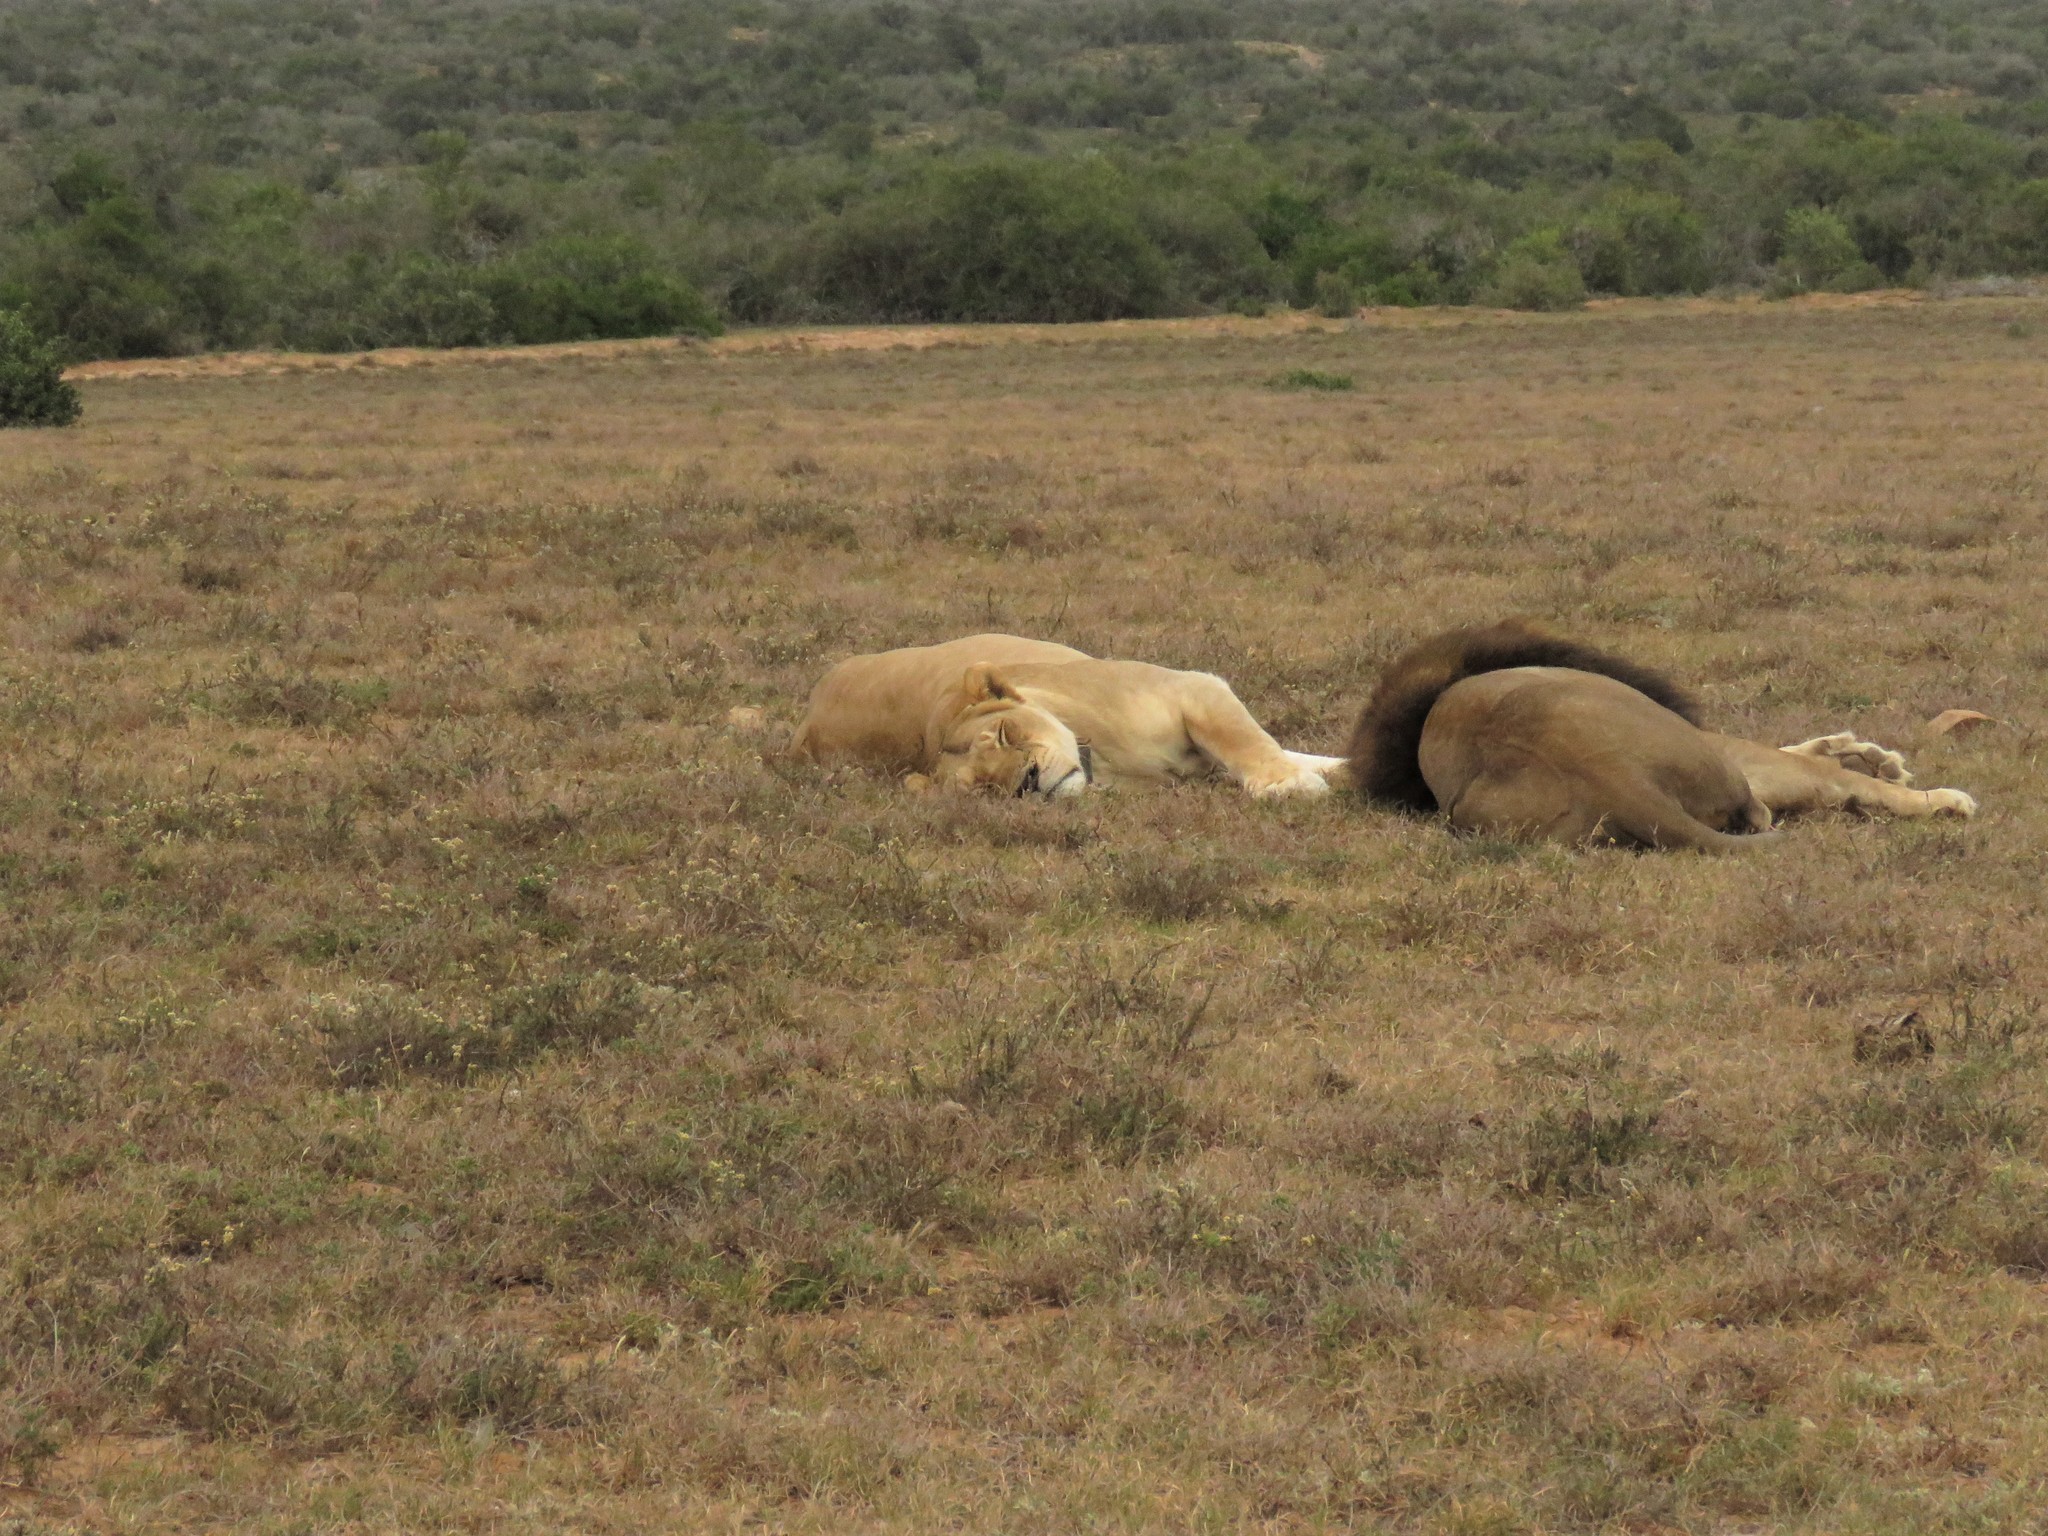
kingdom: Animalia
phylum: Chordata
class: Mammalia
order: Carnivora
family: Felidae
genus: Panthera
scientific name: Panthera leo
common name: Lion
